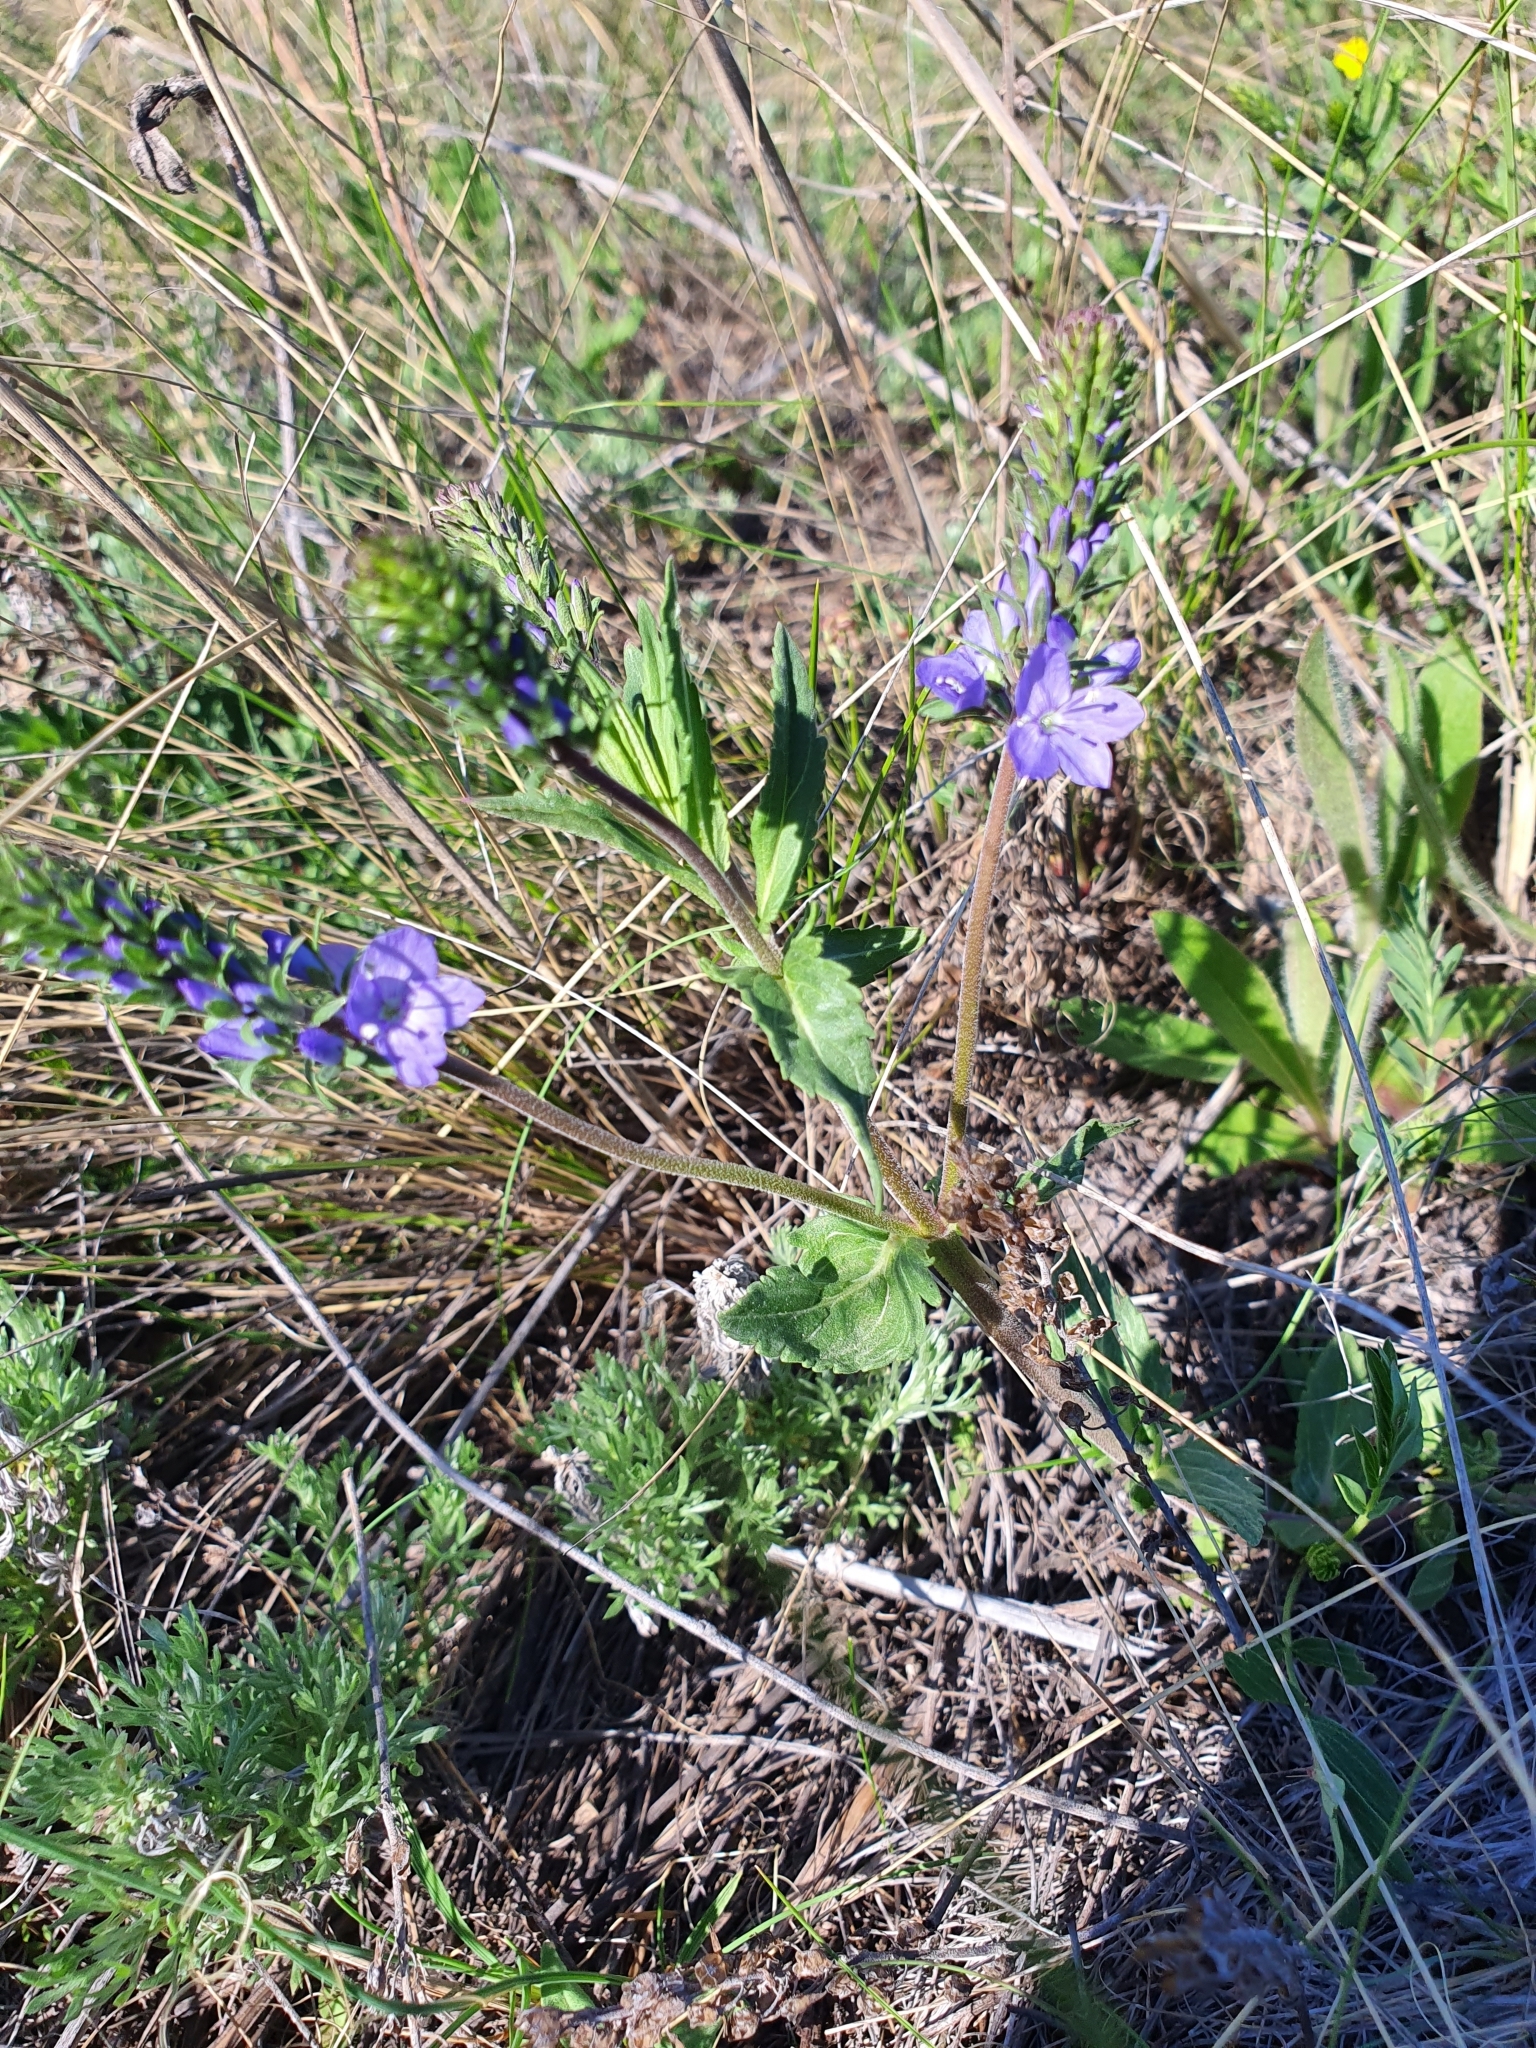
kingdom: Plantae
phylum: Tracheophyta
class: Magnoliopsida
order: Lamiales
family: Plantaginaceae
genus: Veronica
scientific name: Veronica prostrata
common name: Prostrate speedwell
